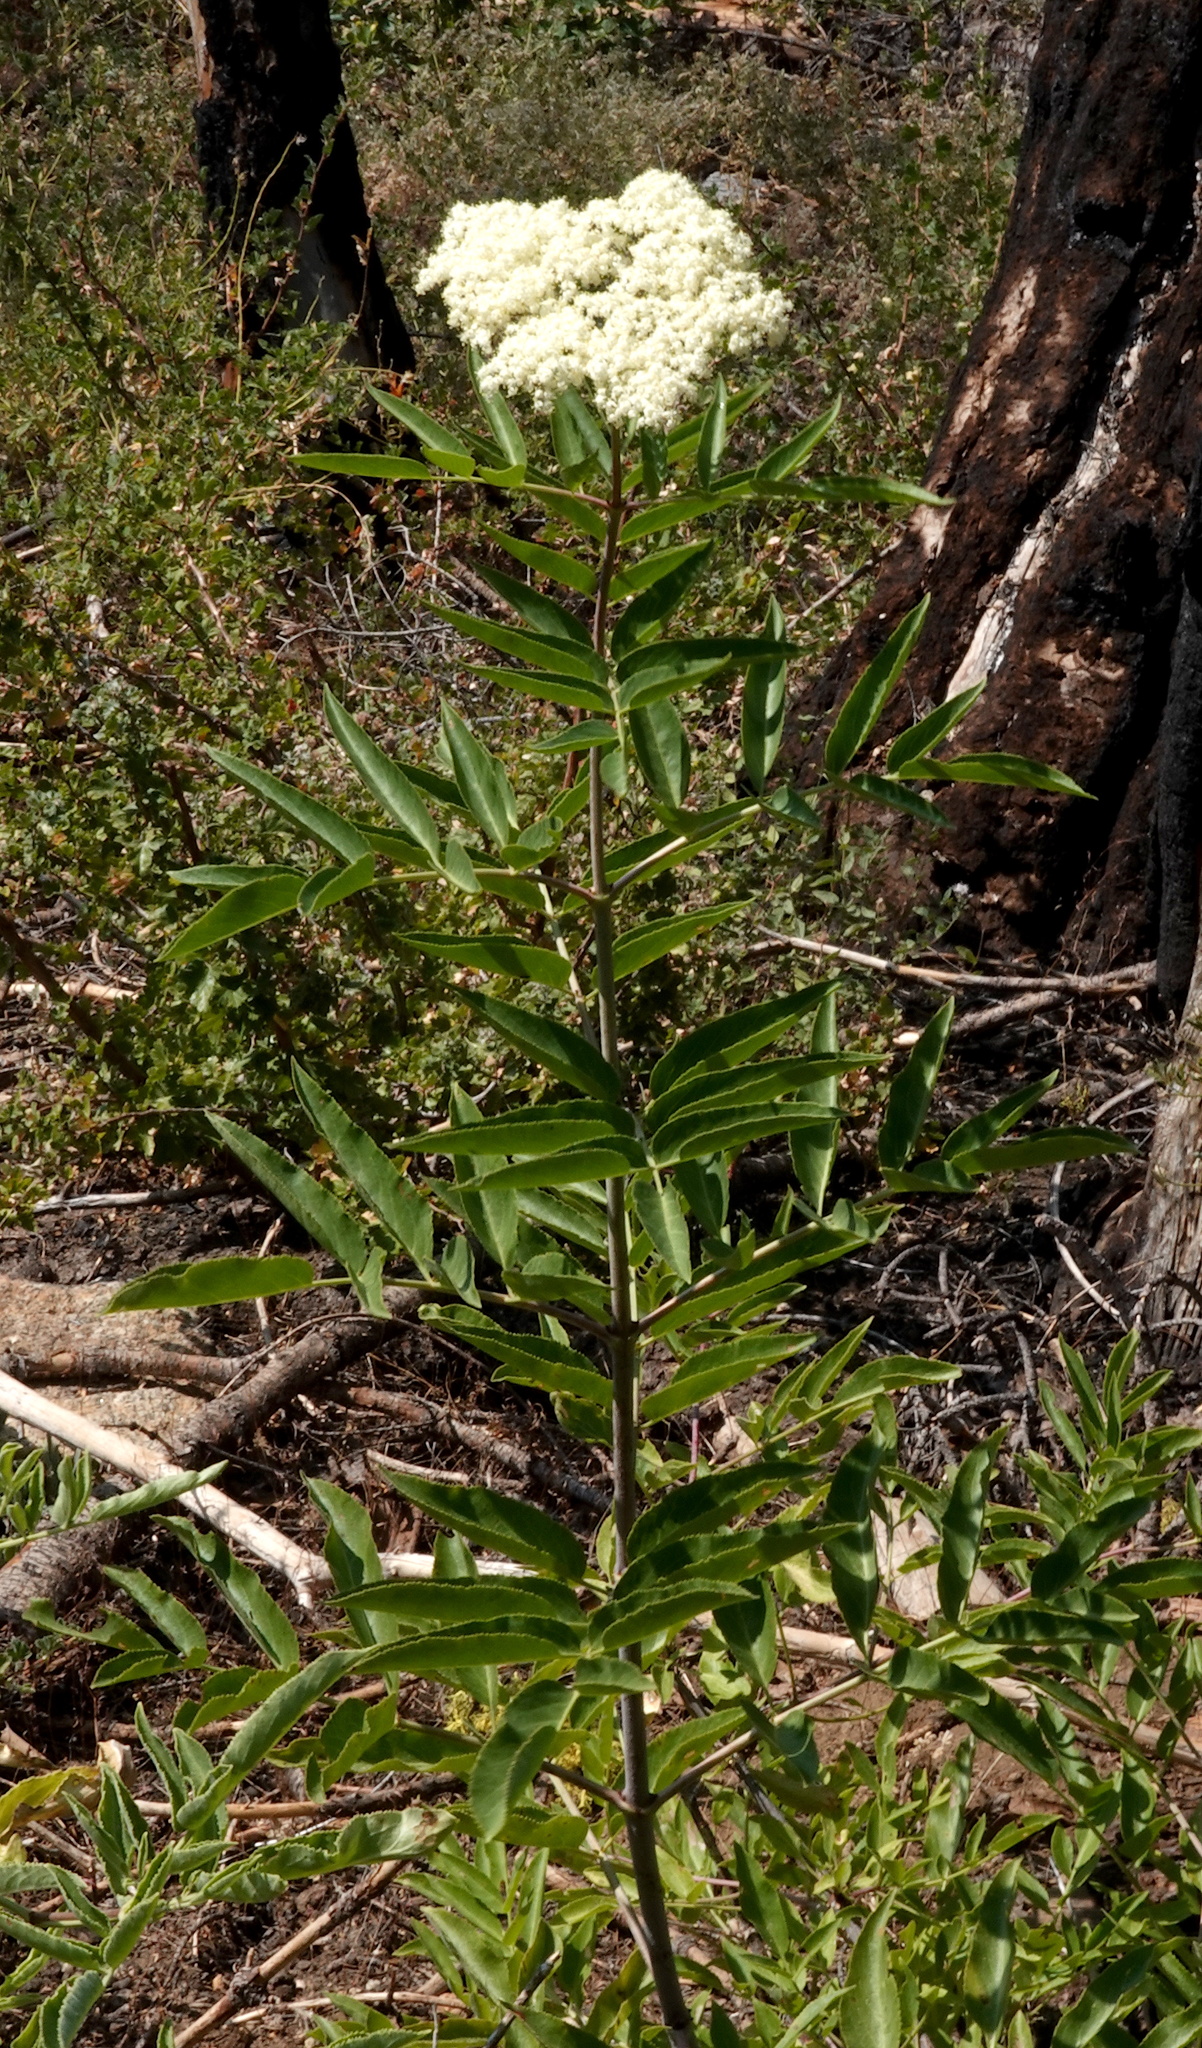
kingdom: Plantae
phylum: Tracheophyta
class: Magnoliopsida
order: Dipsacales
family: Viburnaceae
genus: Sambucus
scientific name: Sambucus cerulea
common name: Blue elder
